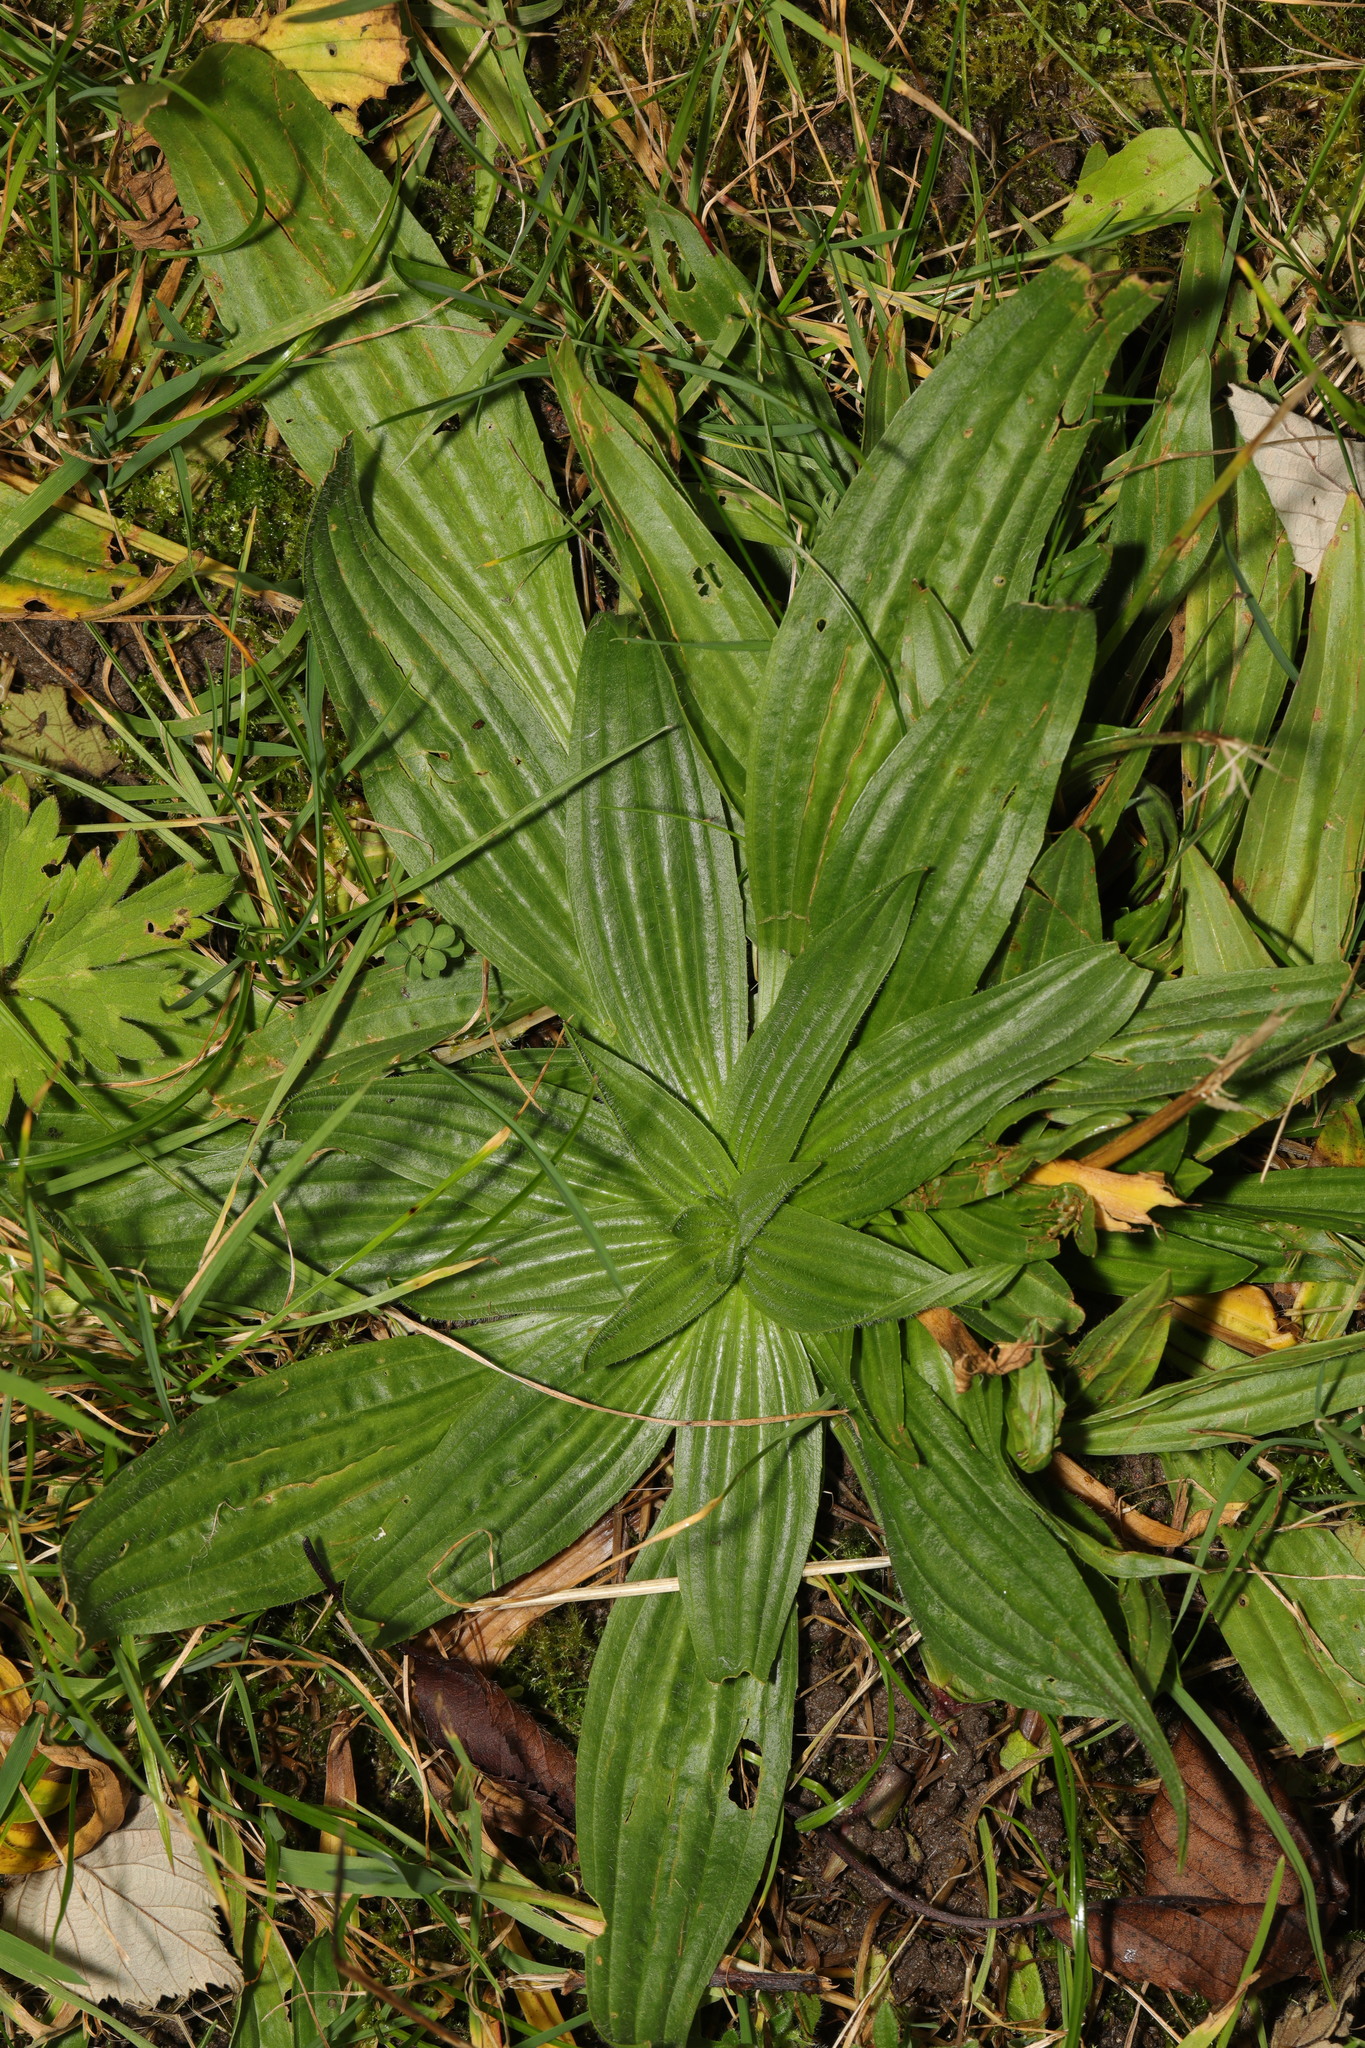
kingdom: Plantae
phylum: Tracheophyta
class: Magnoliopsida
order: Lamiales
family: Plantaginaceae
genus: Plantago
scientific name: Plantago lanceolata
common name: Ribwort plantain
